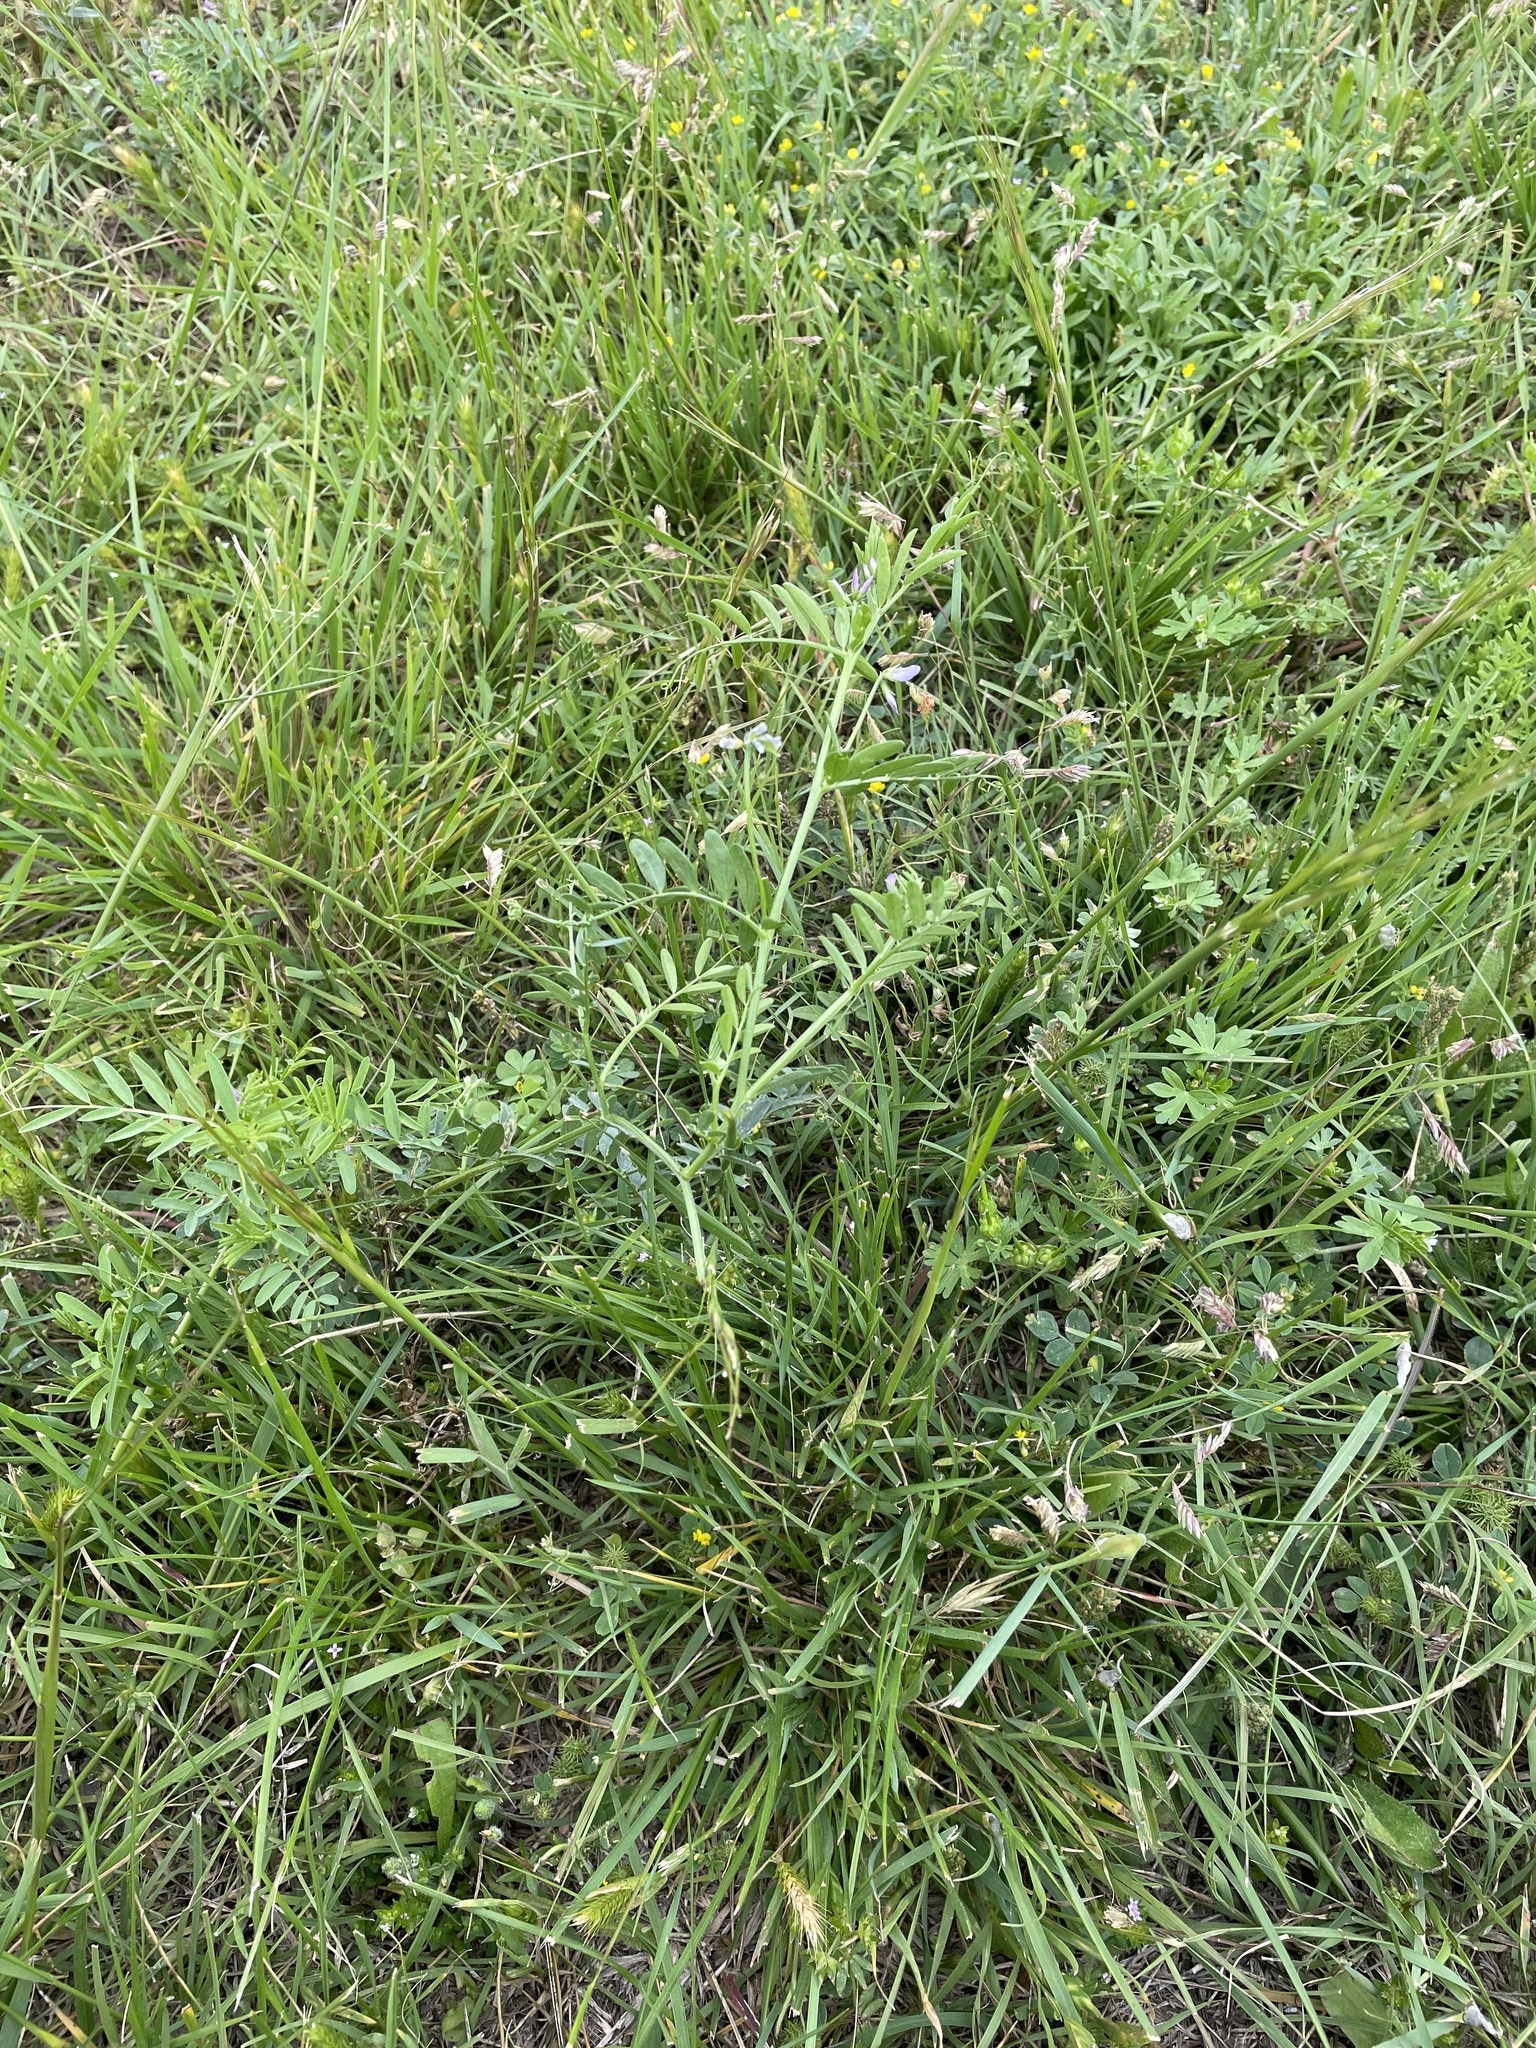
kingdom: Plantae
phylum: Tracheophyta
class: Magnoliopsida
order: Fabales
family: Fabaceae
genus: Vicia
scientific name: Vicia ludoviciana
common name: Louisiana vetch
